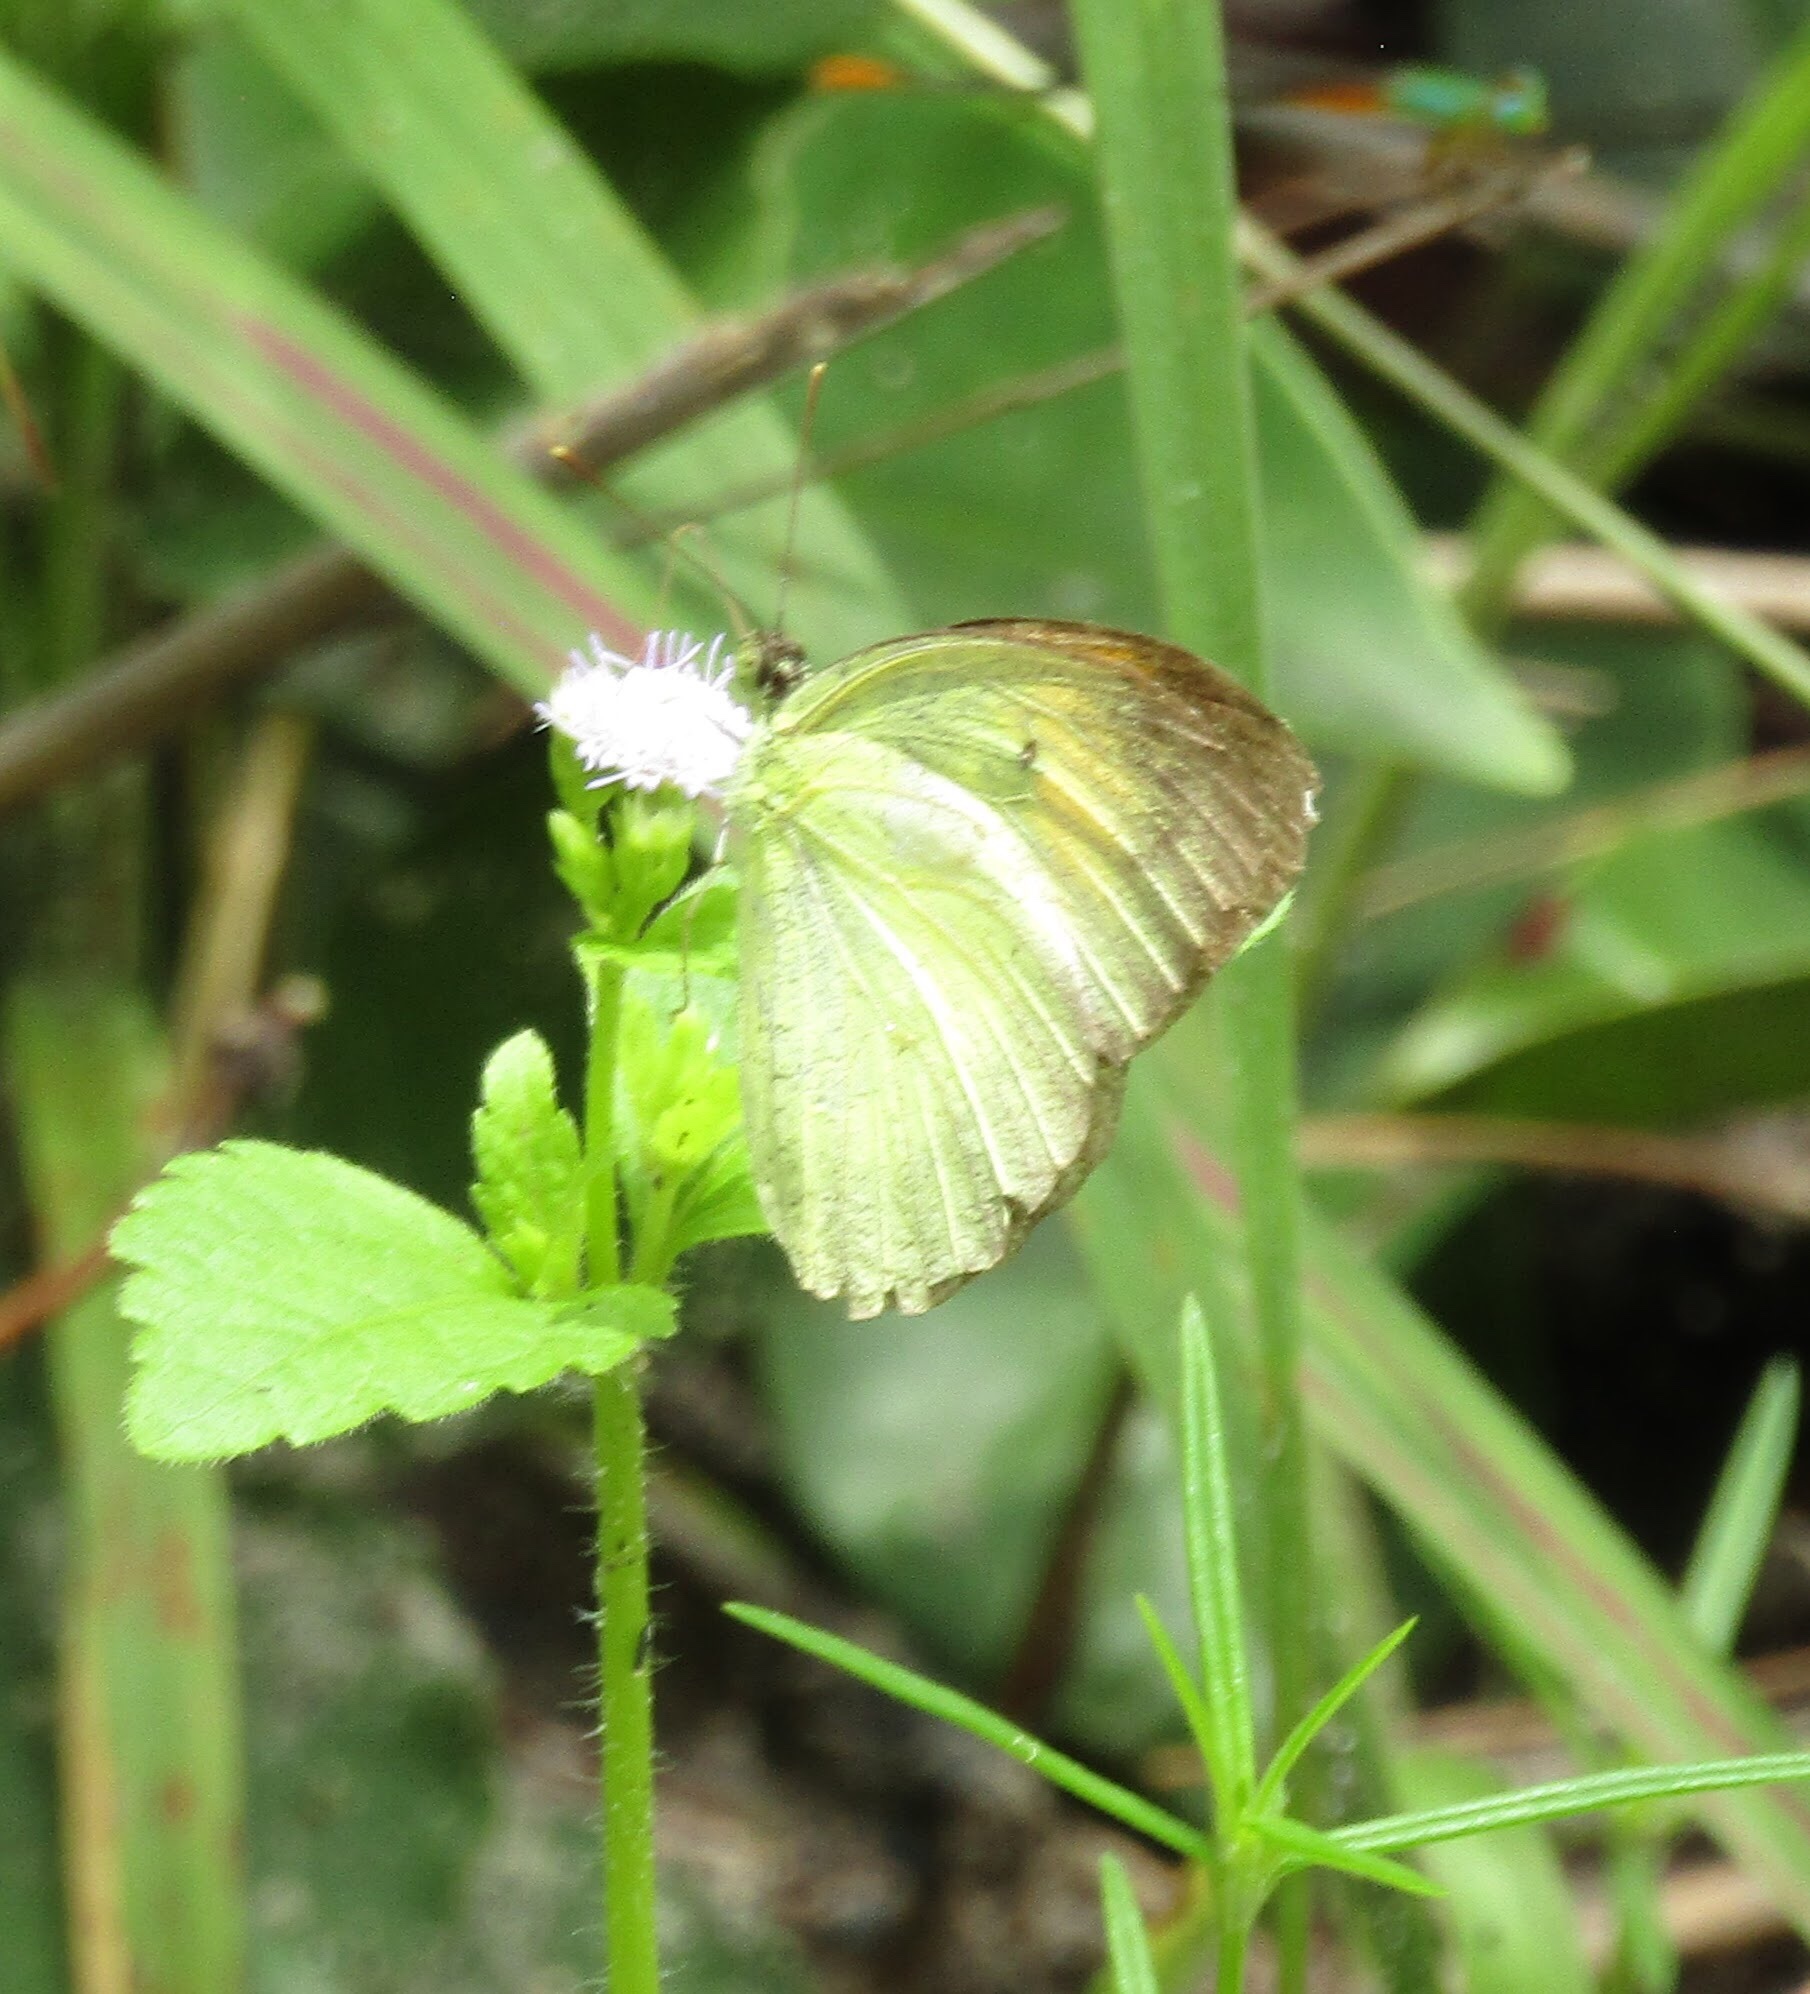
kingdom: Animalia
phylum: Arthropoda
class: Insecta
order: Lepidoptera
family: Pieridae
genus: Ixias
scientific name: Ixias pyrene
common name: Yellow orange tip
